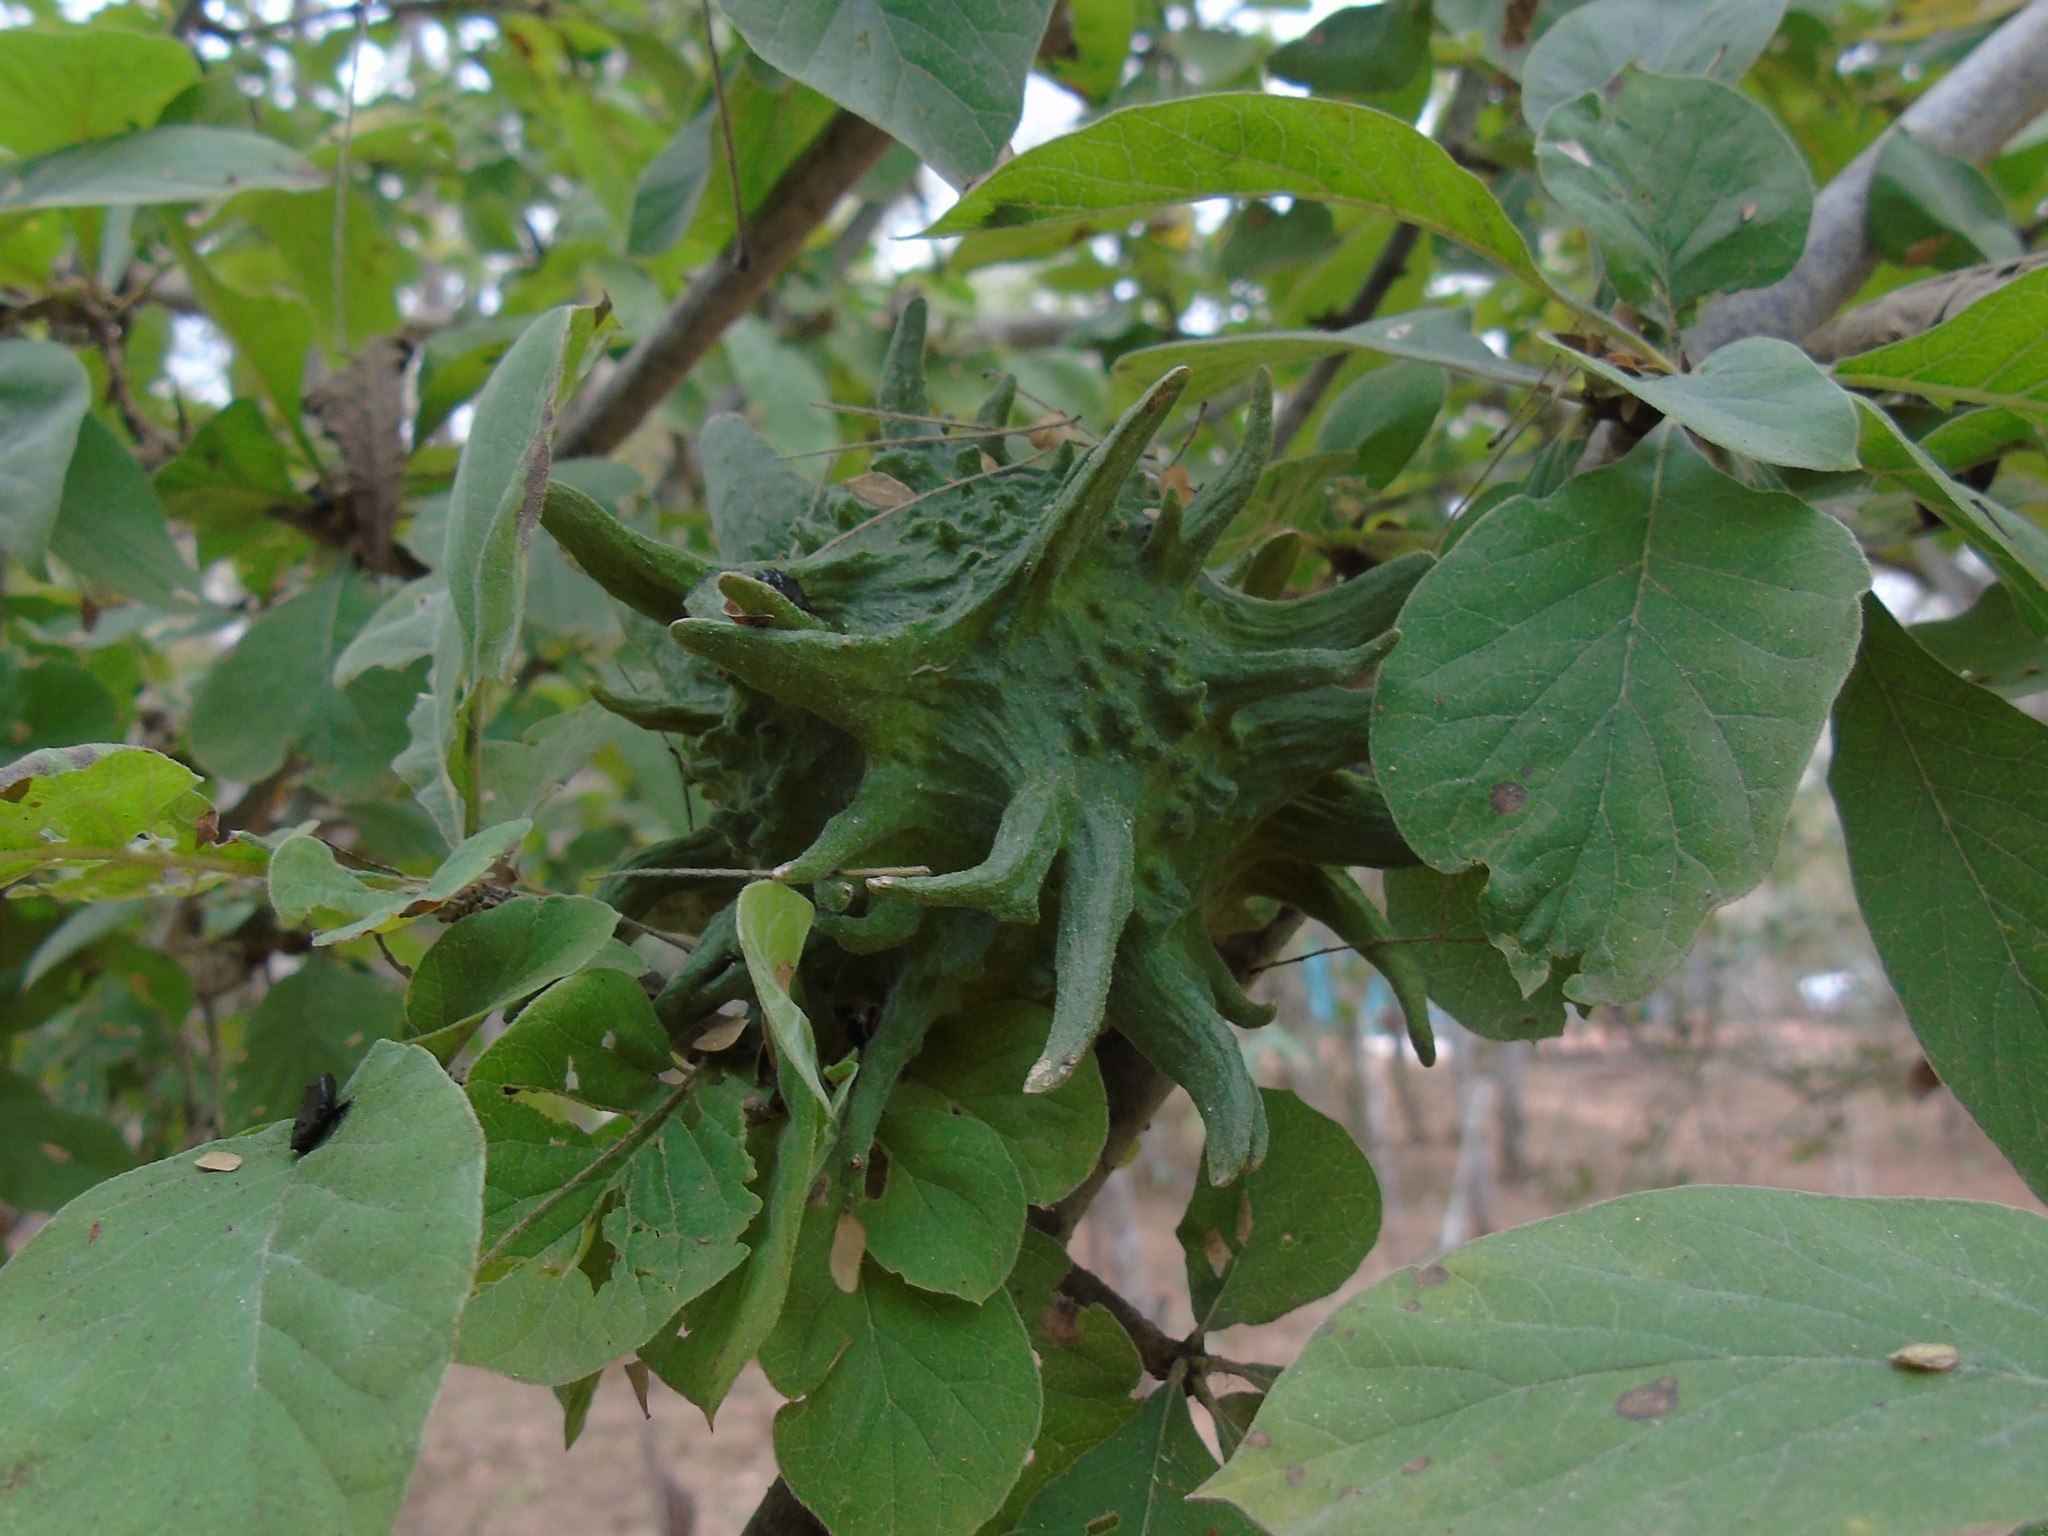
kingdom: Plantae
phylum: Tracheophyta
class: Magnoliopsida
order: Gentianales
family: Rubiaceae
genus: Randia
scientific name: Randia echinocarpa
